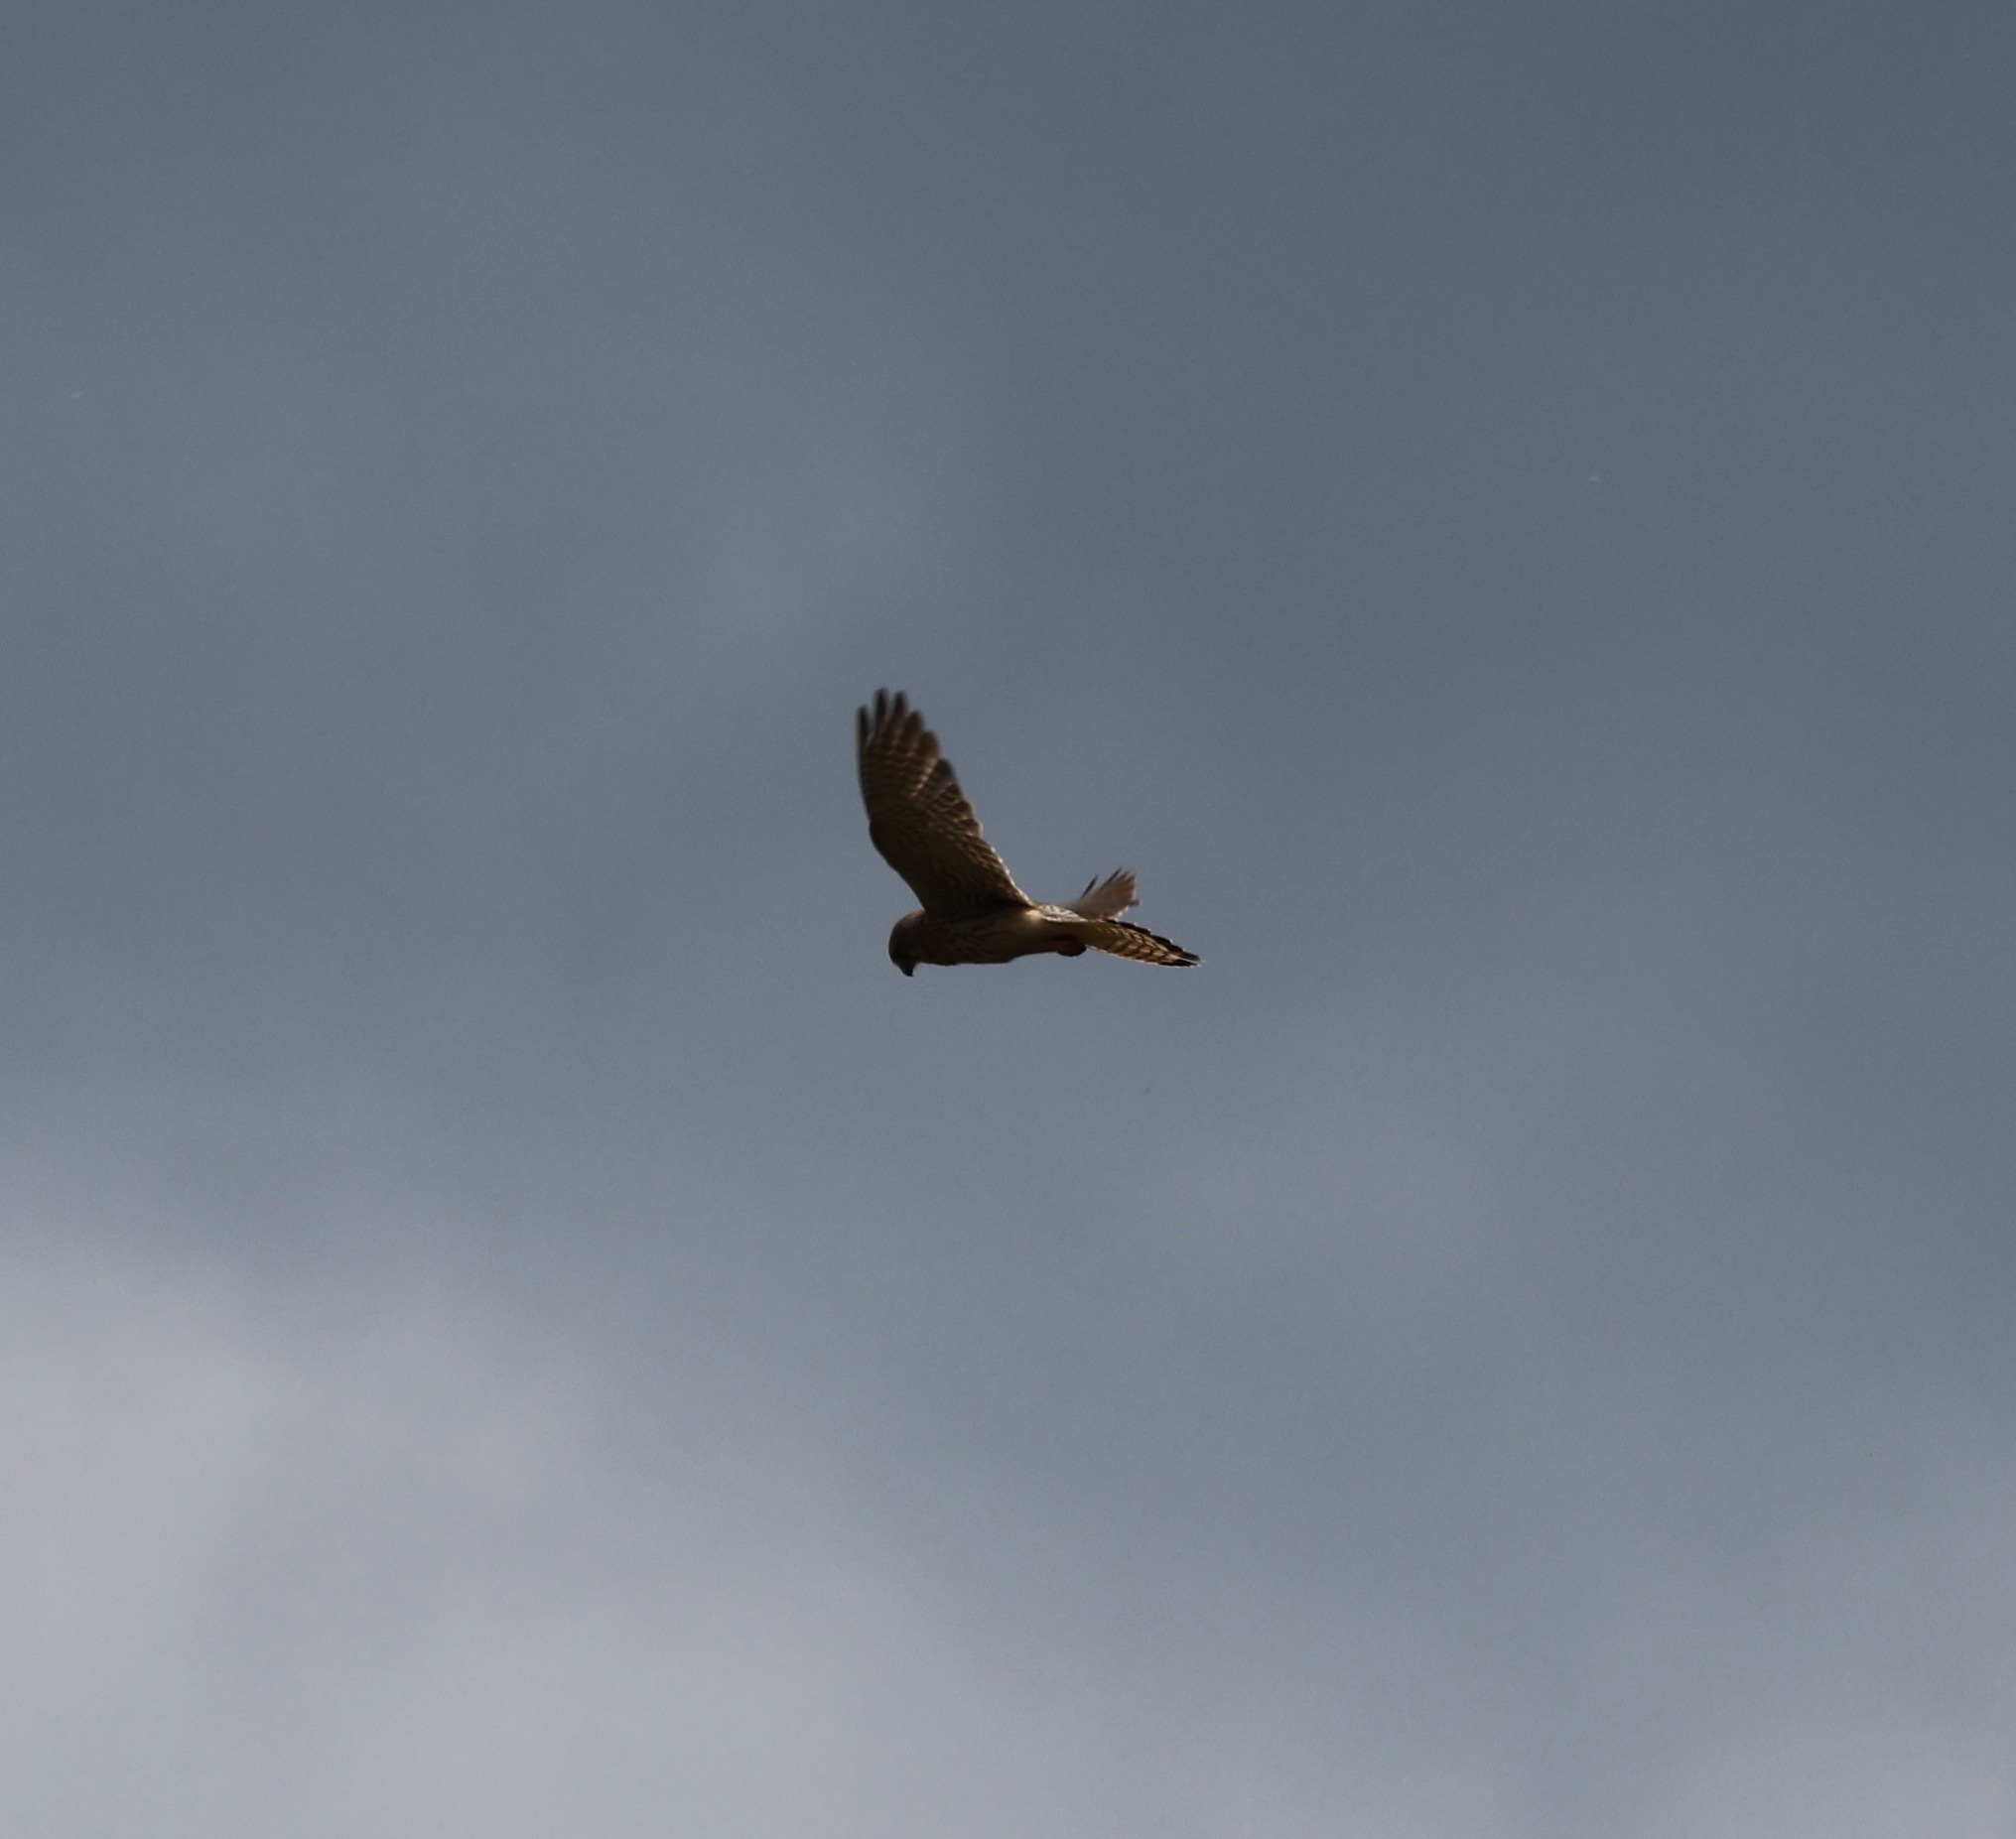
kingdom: Animalia
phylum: Chordata
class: Aves
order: Falconiformes
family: Falconidae
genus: Falco
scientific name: Falco tinnunculus
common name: Common kestrel
